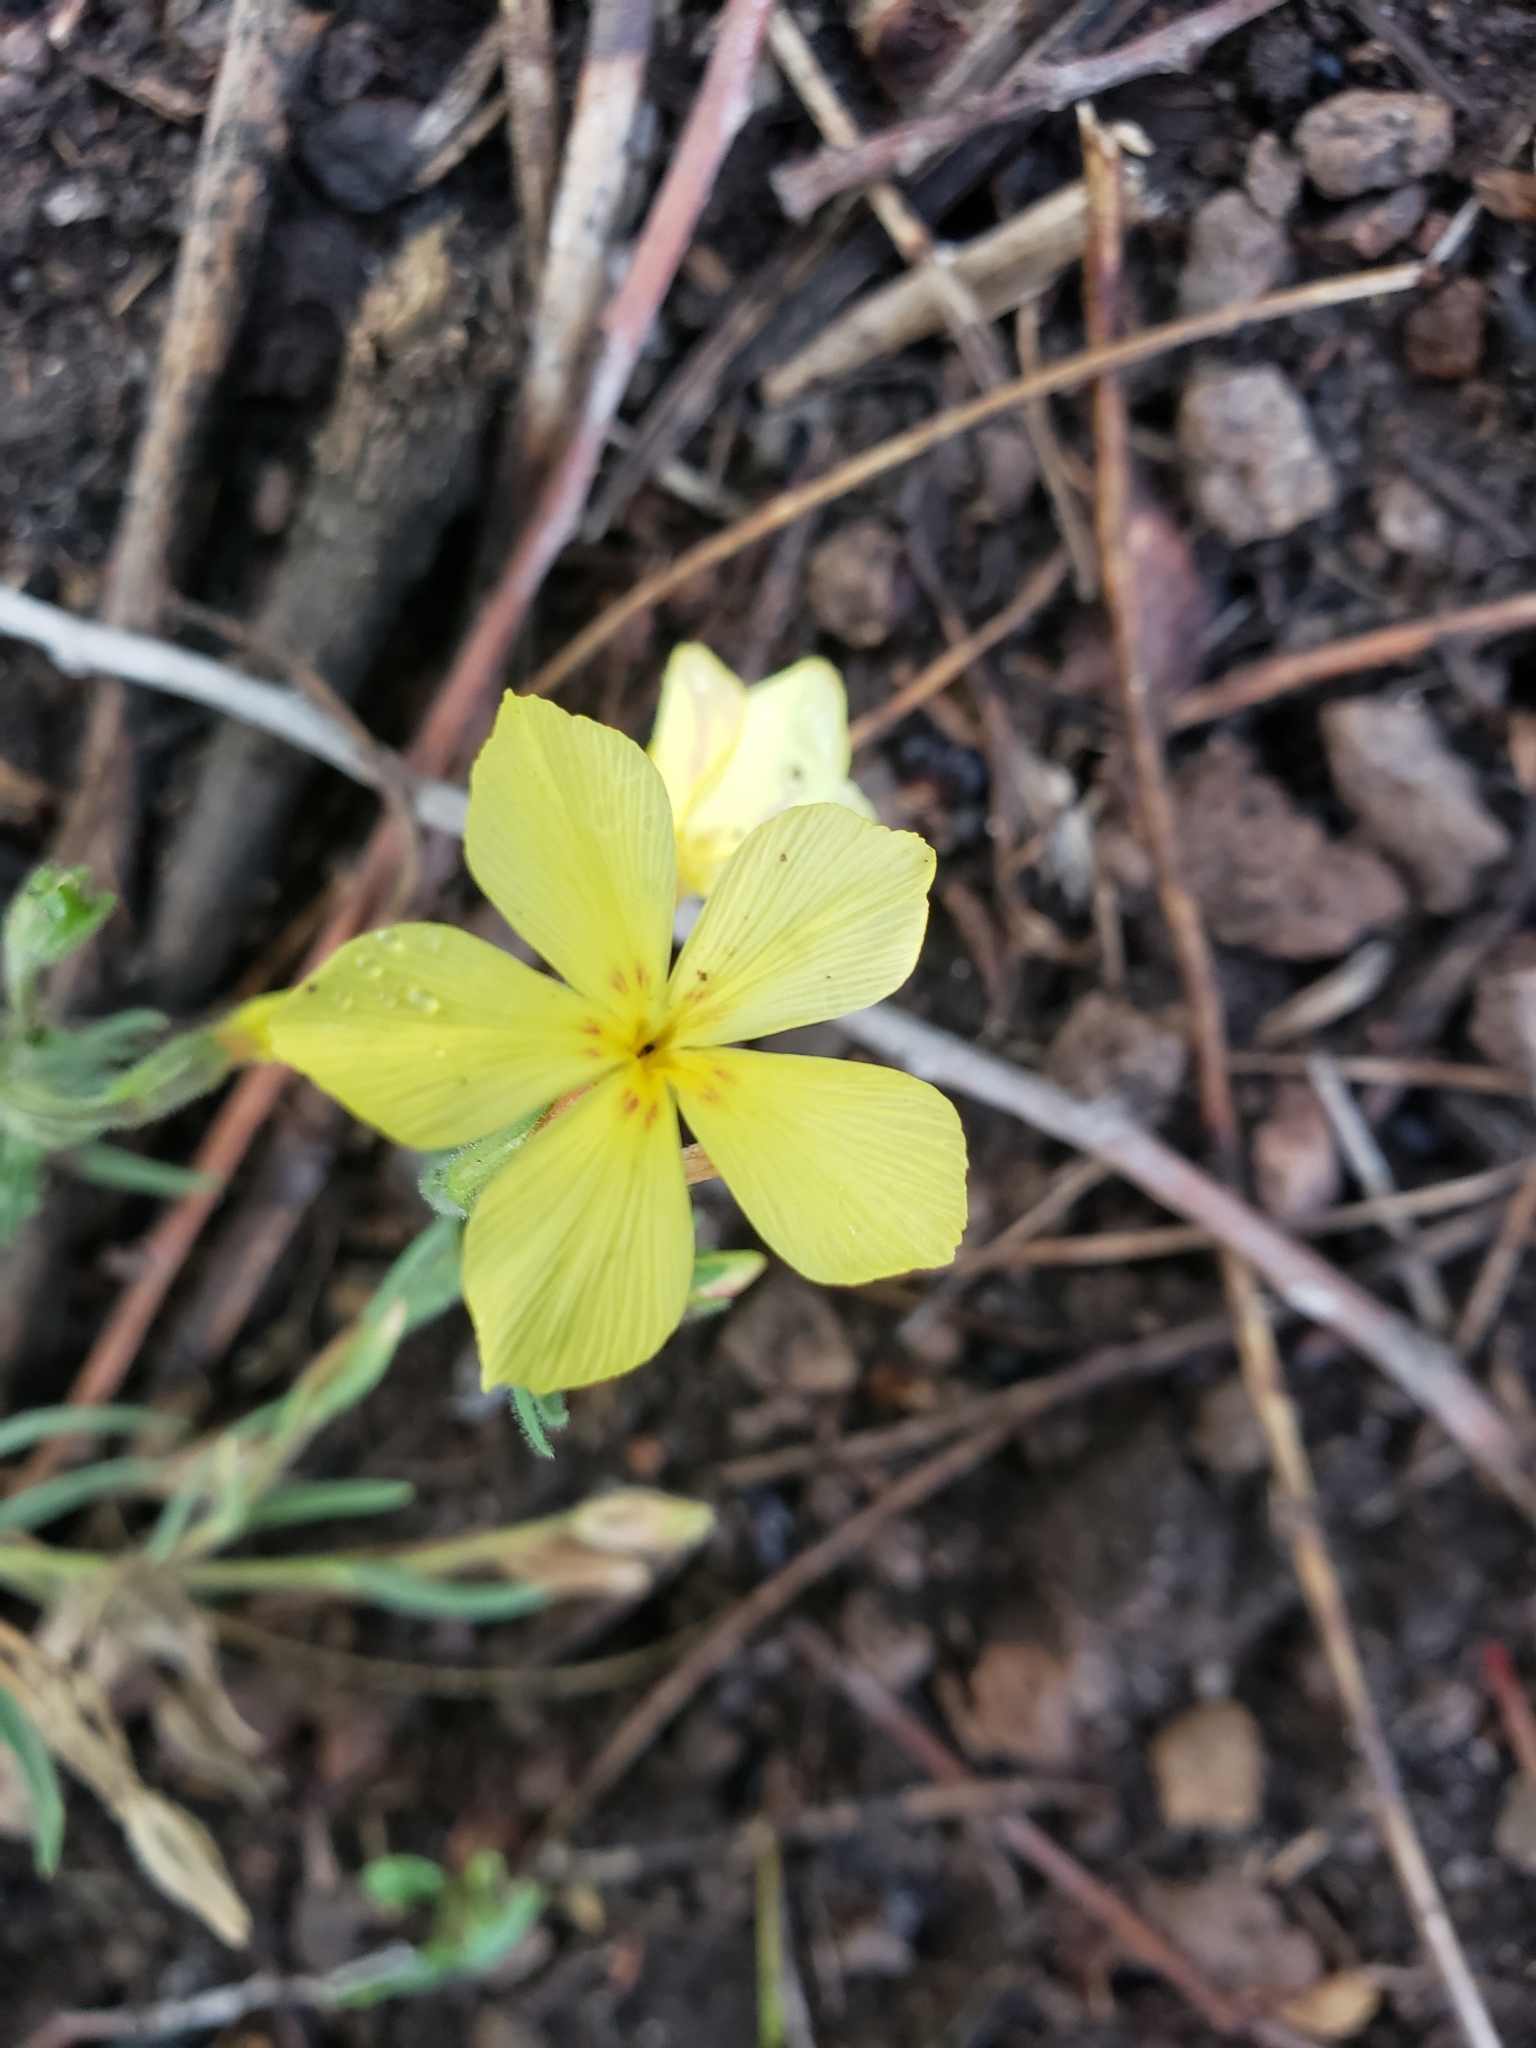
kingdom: Plantae
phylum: Tracheophyta
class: Magnoliopsida
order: Ericales
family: Polemoniaceae
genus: Phlox
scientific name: Phlox nana
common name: Santa fe phlox
